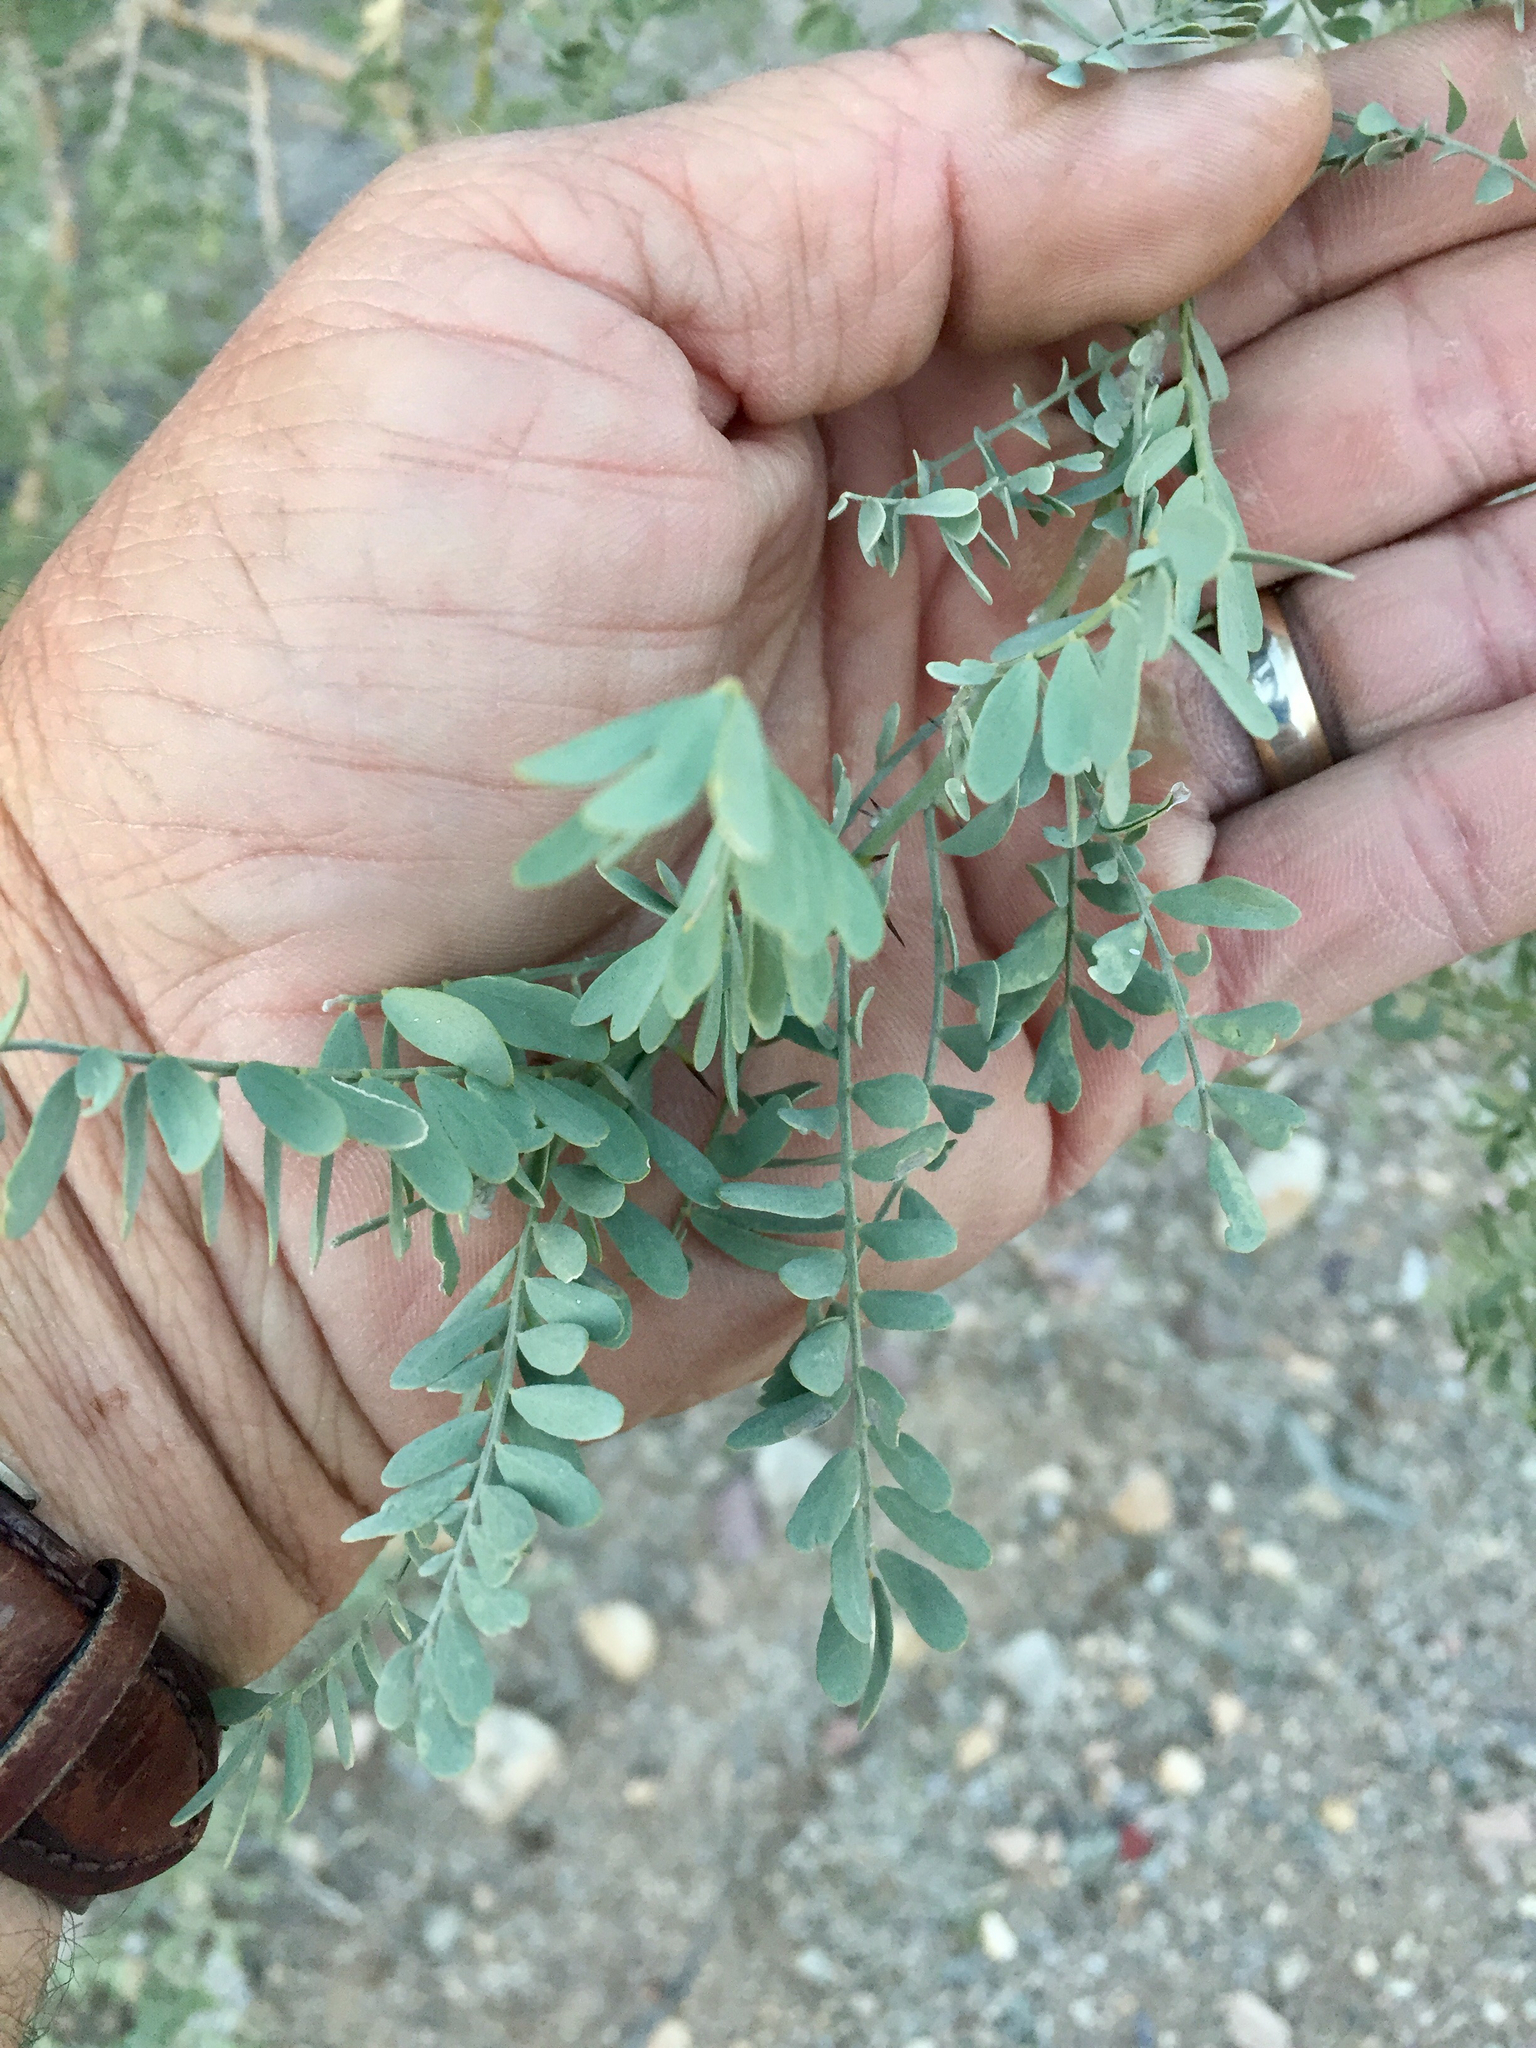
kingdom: Plantae
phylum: Tracheophyta
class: Magnoliopsida
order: Fabales
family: Fabaceae
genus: Olneya
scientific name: Olneya tesota
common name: Desert ironwood
